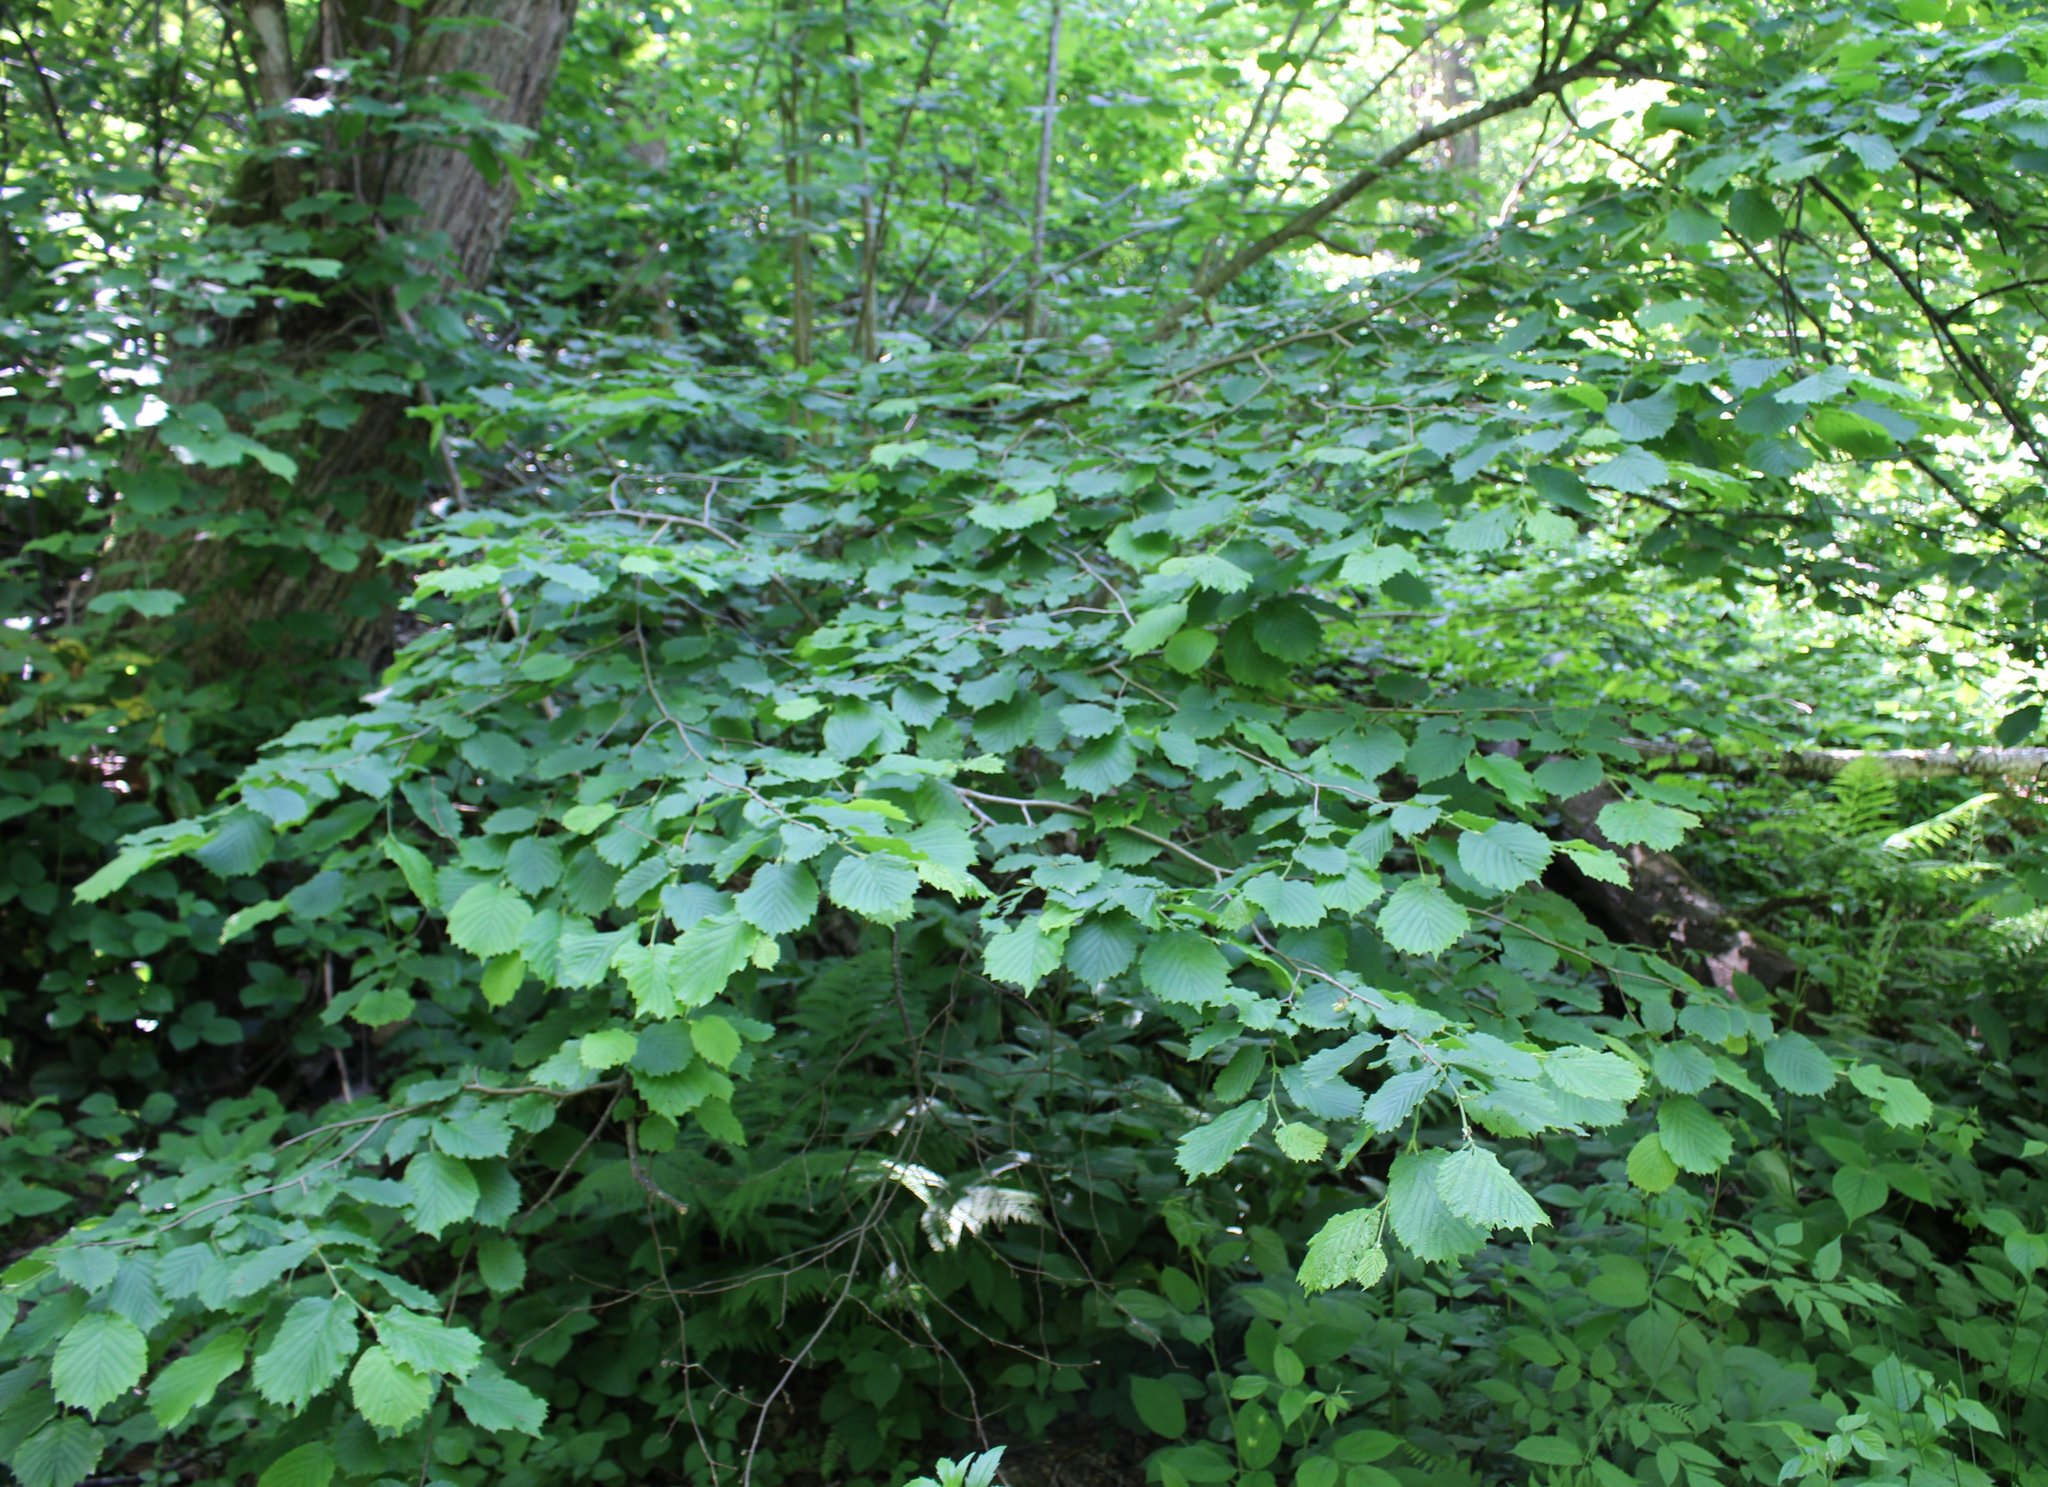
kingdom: Plantae
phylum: Tracheophyta
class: Magnoliopsida
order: Fagales
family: Betulaceae
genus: Corylus
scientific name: Corylus avellana
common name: European hazel
